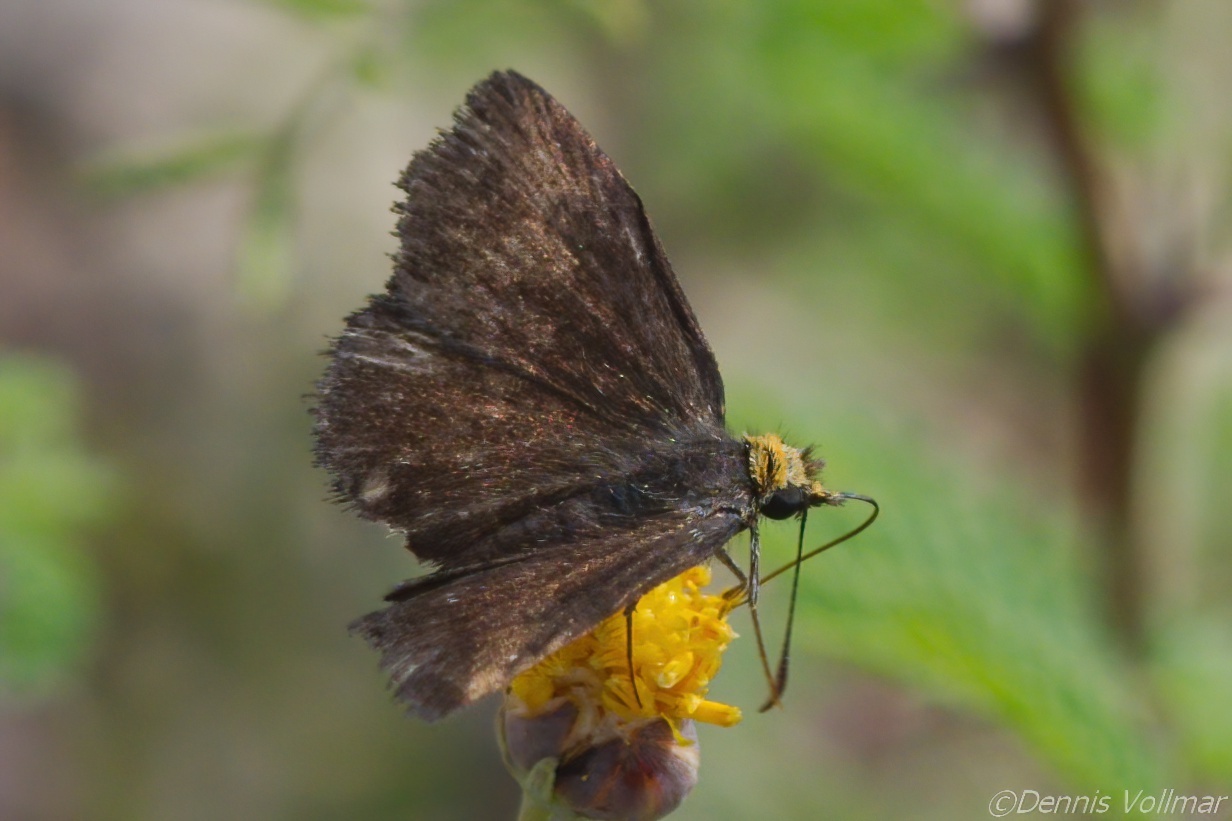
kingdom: Animalia
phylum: Arthropoda
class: Insecta
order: Lepidoptera
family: Hesperiidae
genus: Staphylus
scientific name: Staphylus ceos
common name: Golden-headed scallopwing
